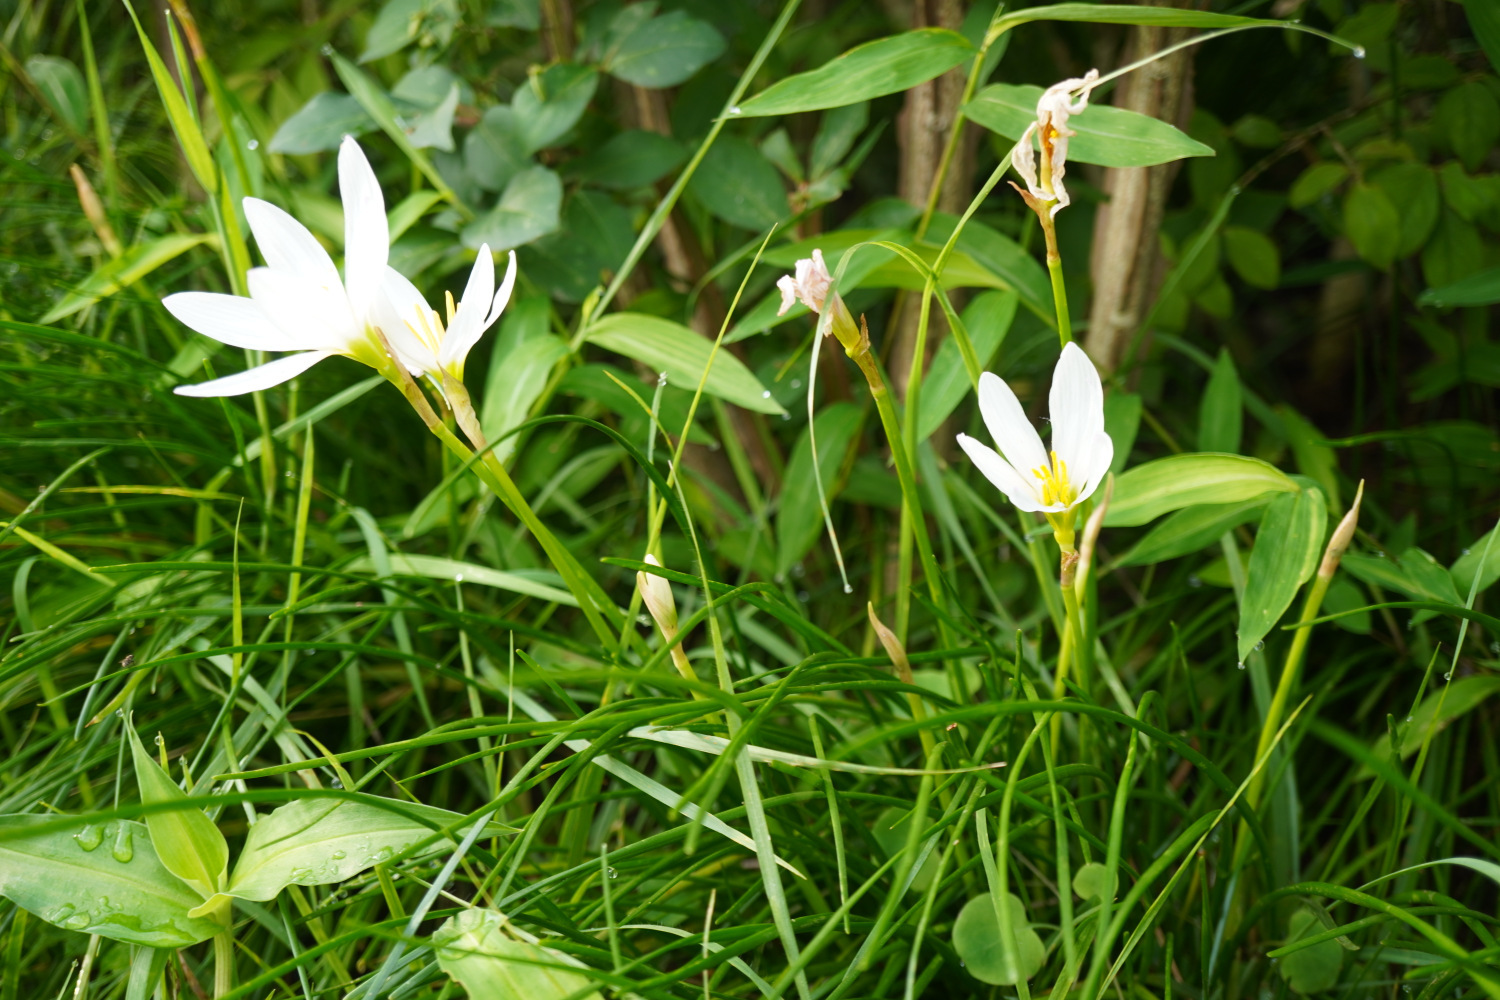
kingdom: Plantae
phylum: Tracheophyta
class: Liliopsida
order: Asparagales
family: Amaryllidaceae
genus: Zephyranthes
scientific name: Zephyranthes candida
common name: Autumn zephyrlily
